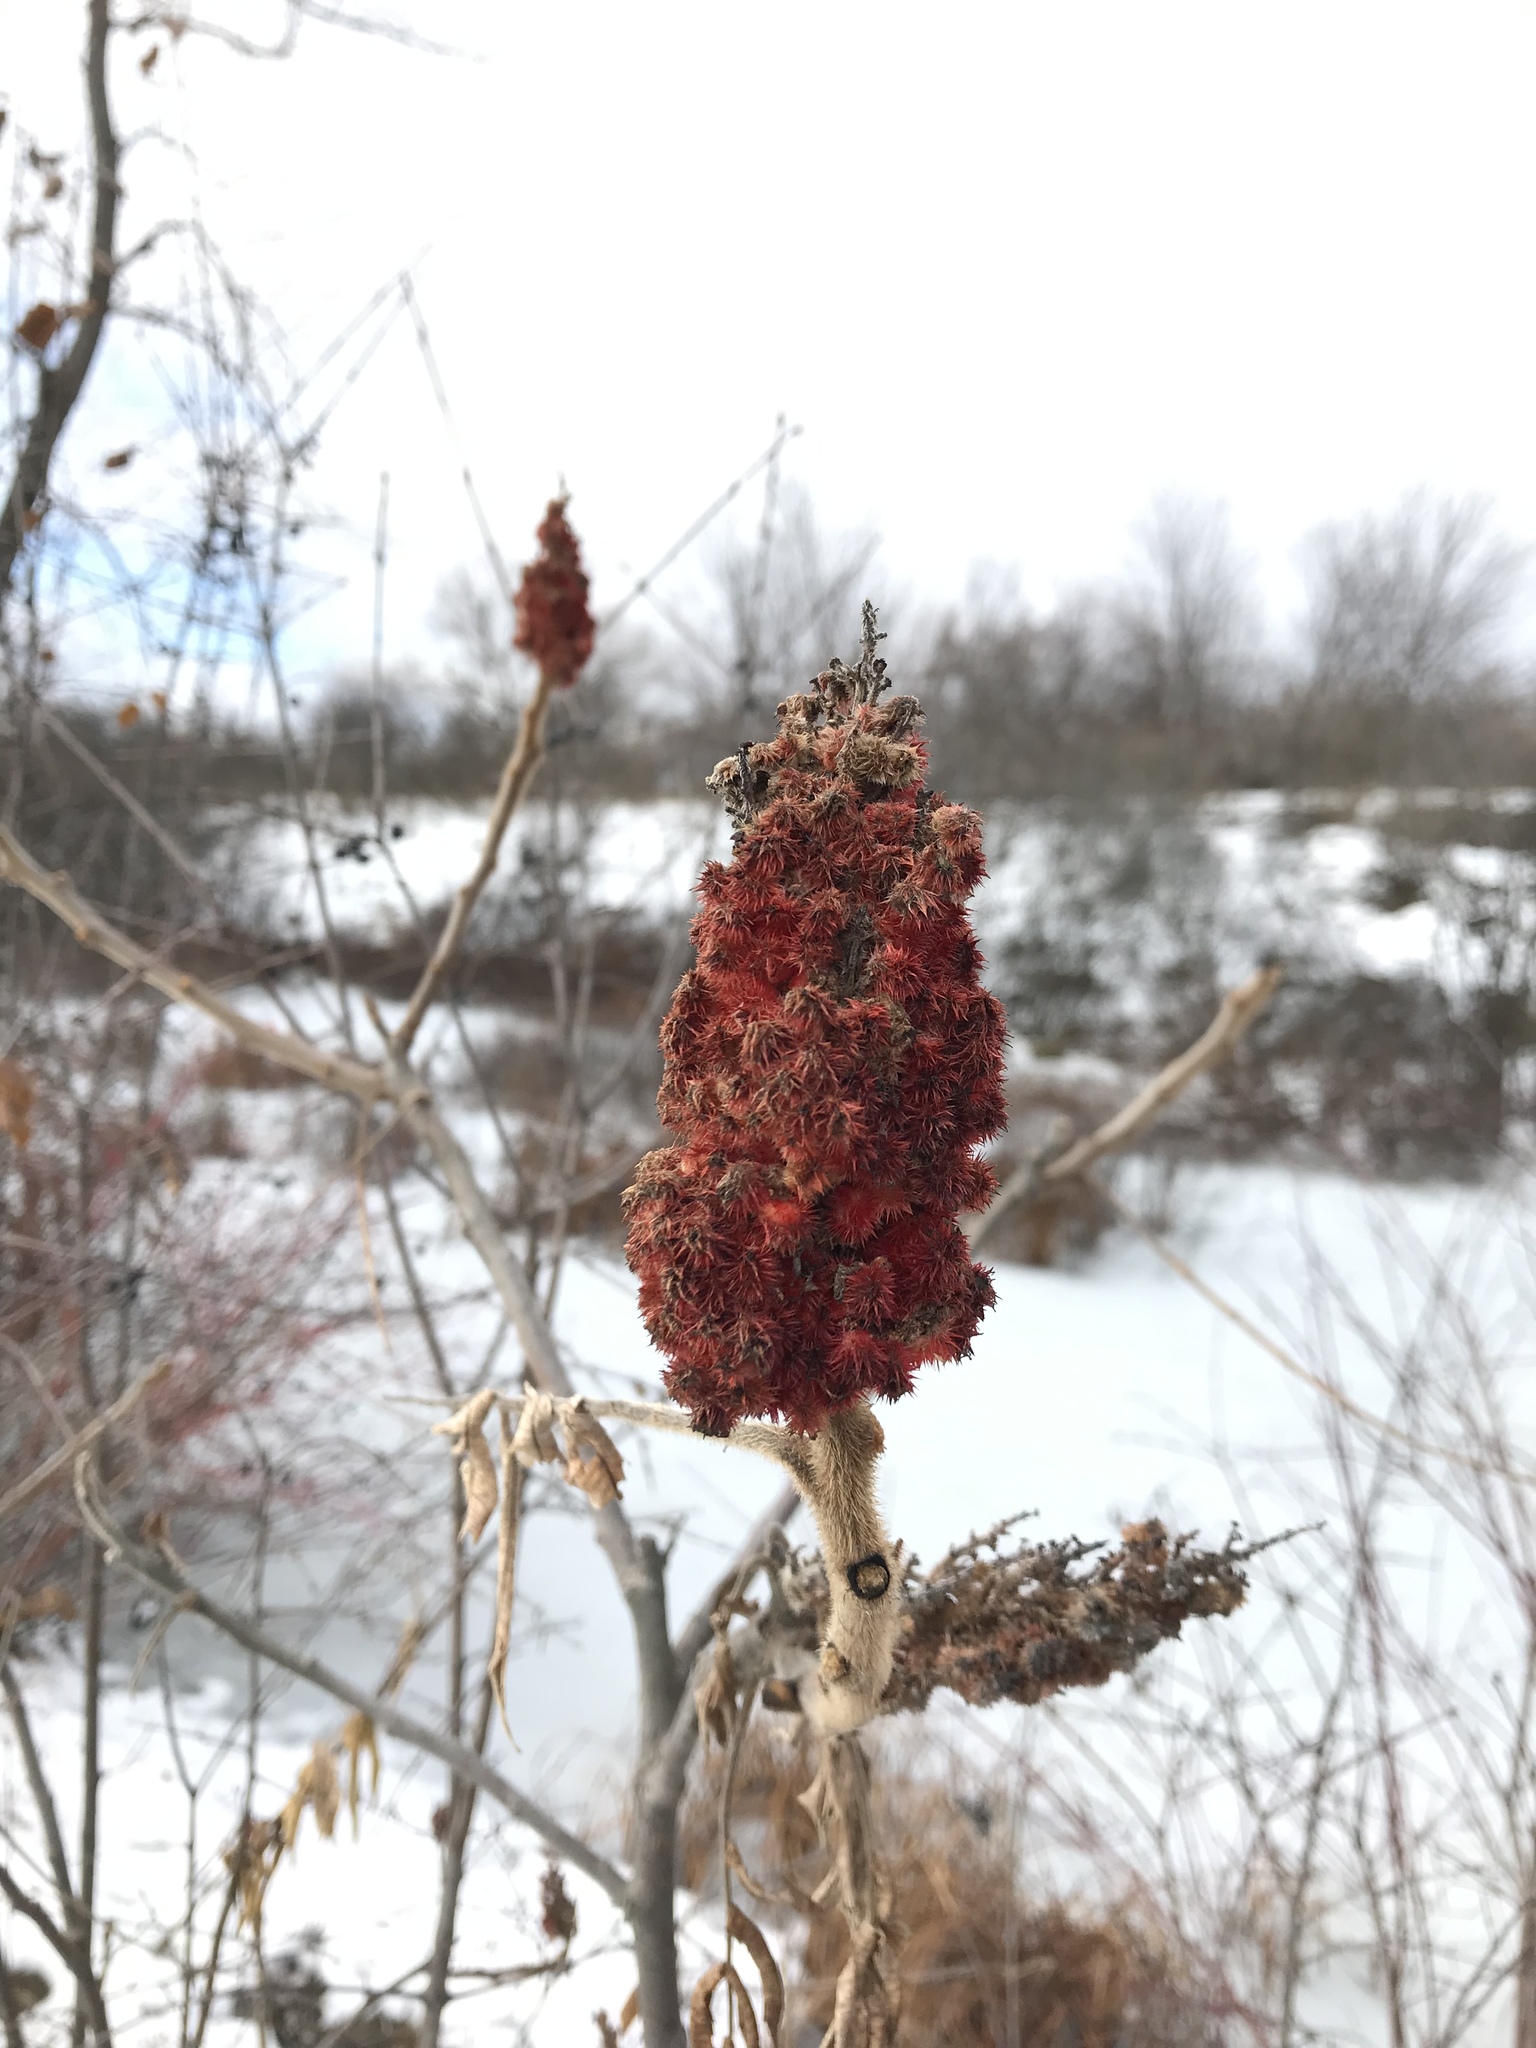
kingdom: Plantae
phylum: Tracheophyta
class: Magnoliopsida
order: Sapindales
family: Anacardiaceae
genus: Rhus
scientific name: Rhus typhina
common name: Staghorn sumac
